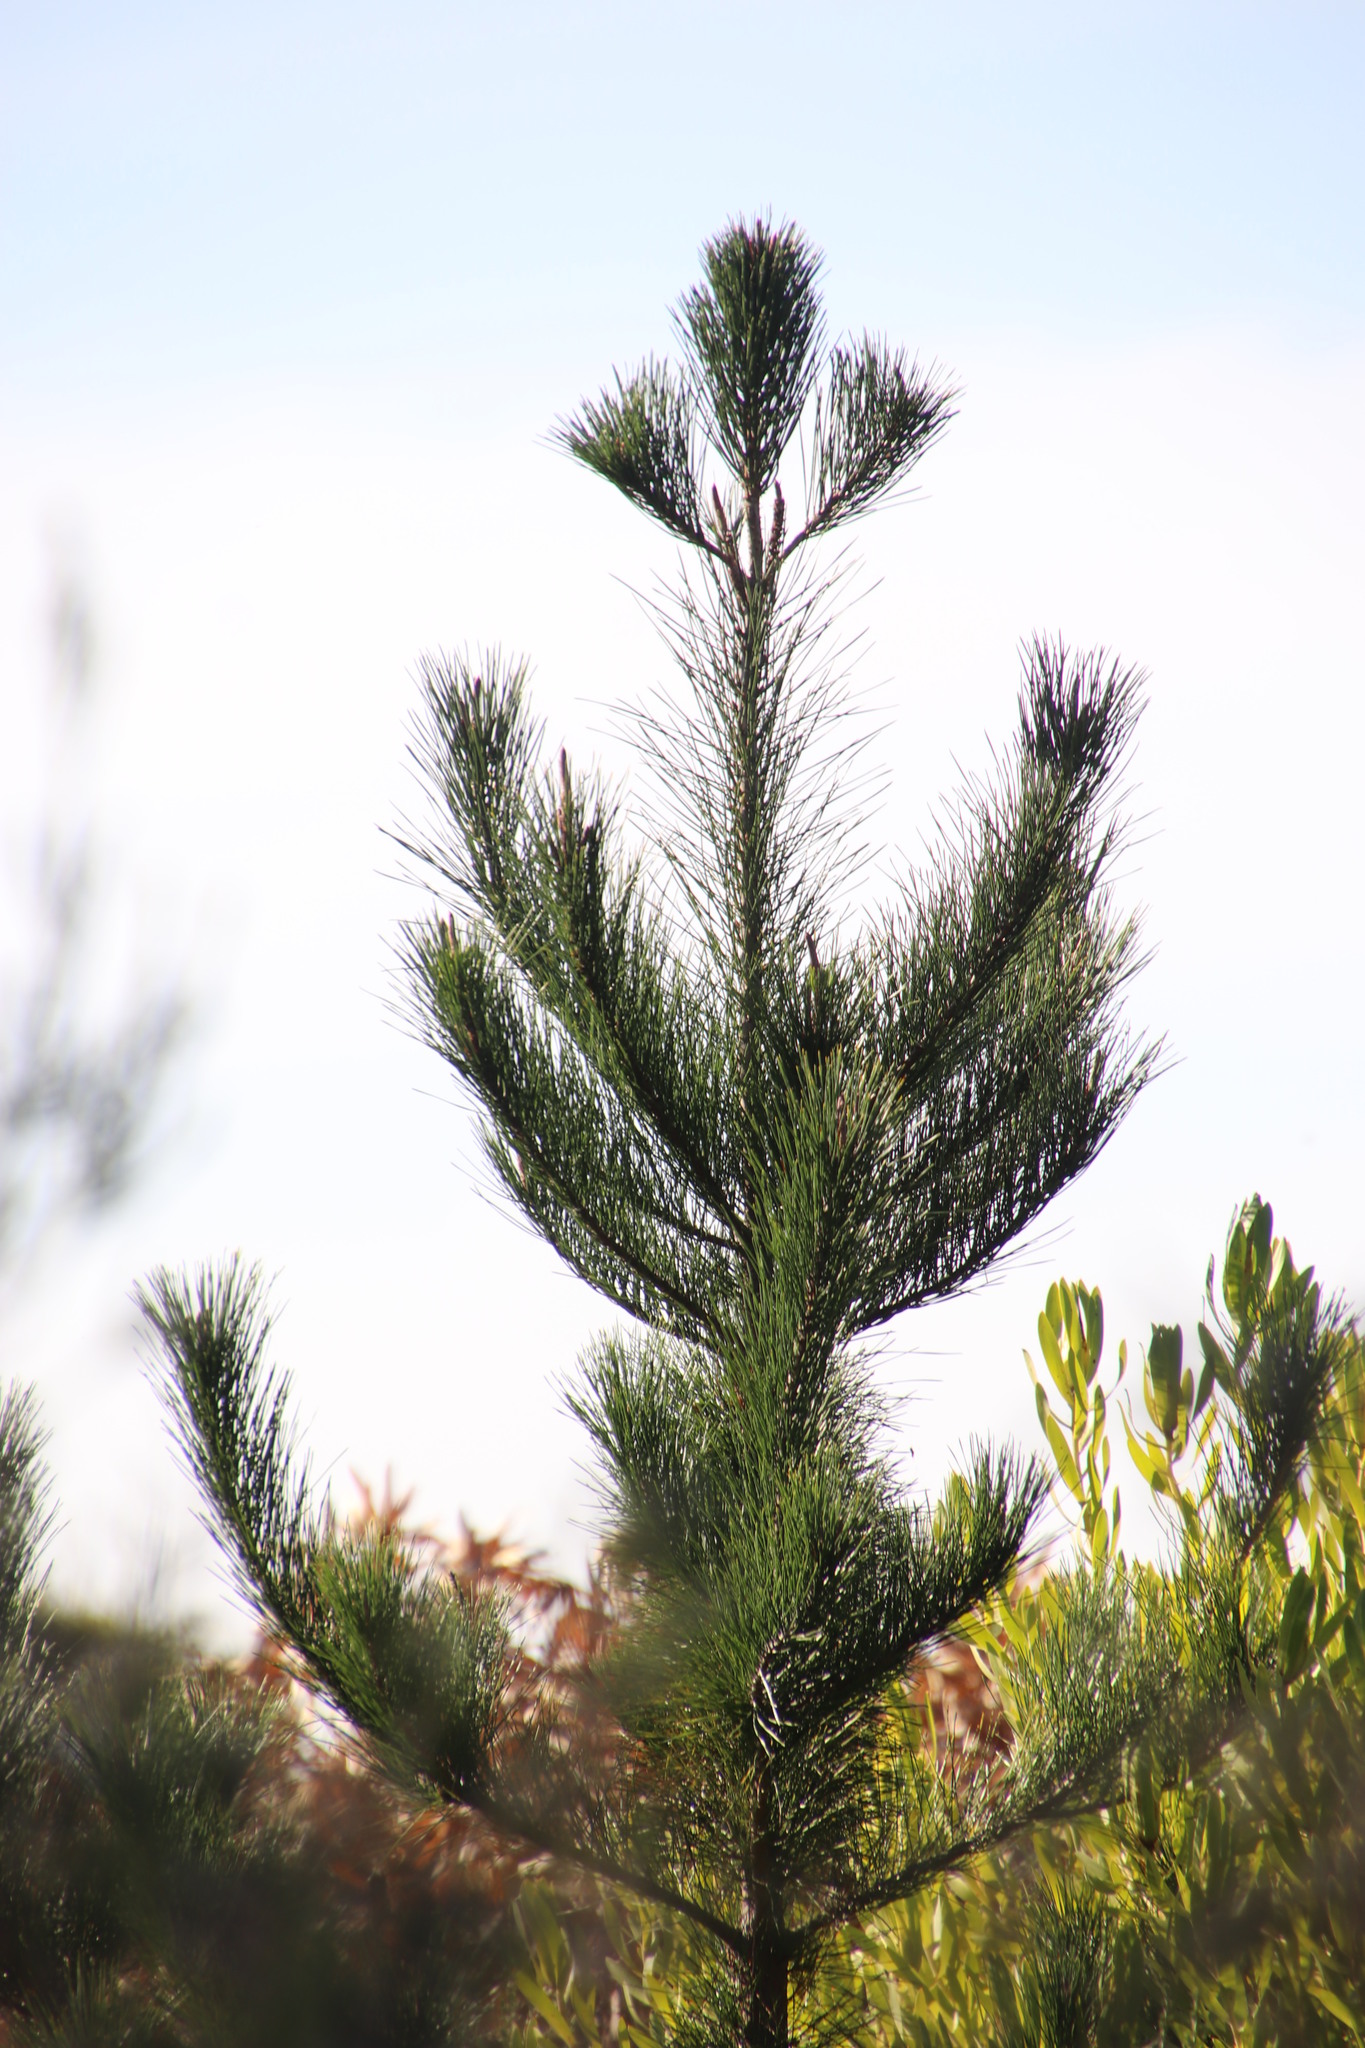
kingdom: Plantae
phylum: Tracheophyta
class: Pinopsida
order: Pinales
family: Pinaceae
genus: Pinus
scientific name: Pinus radiata
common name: Monterey pine
